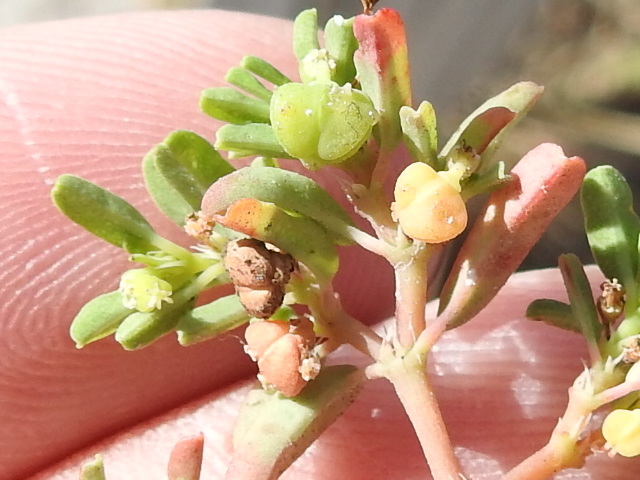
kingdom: Plantae
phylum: Tracheophyta
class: Magnoliopsida
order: Malpighiales
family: Euphorbiaceae
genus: Euphorbia
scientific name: Euphorbia bombensis
